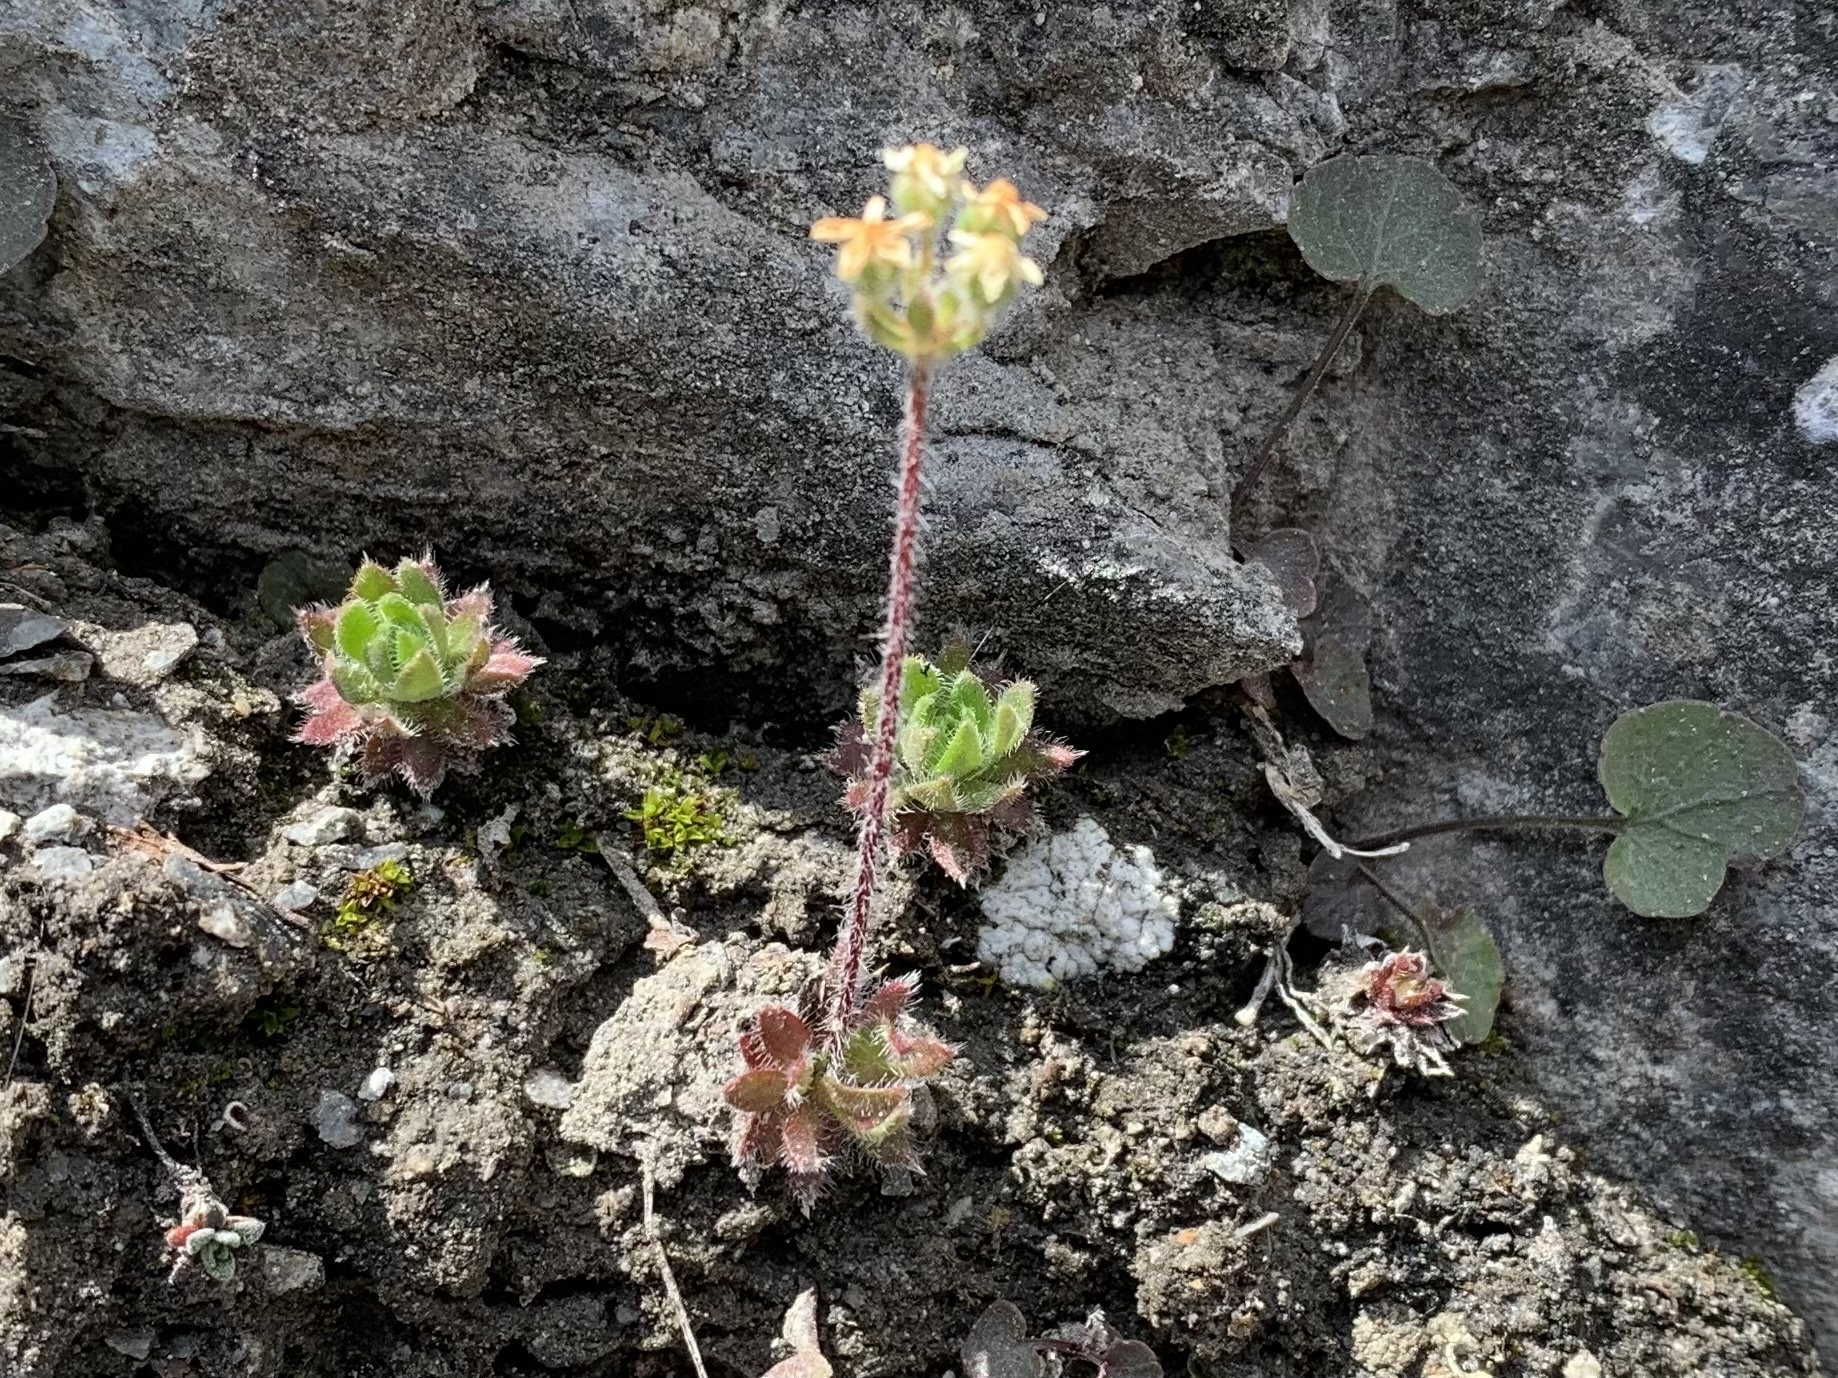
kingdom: Plantae
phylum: Tracheophyta
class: Magnoliopsida
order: Ericales
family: Primulaceae
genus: Androsace
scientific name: Androsace chamaejasme
